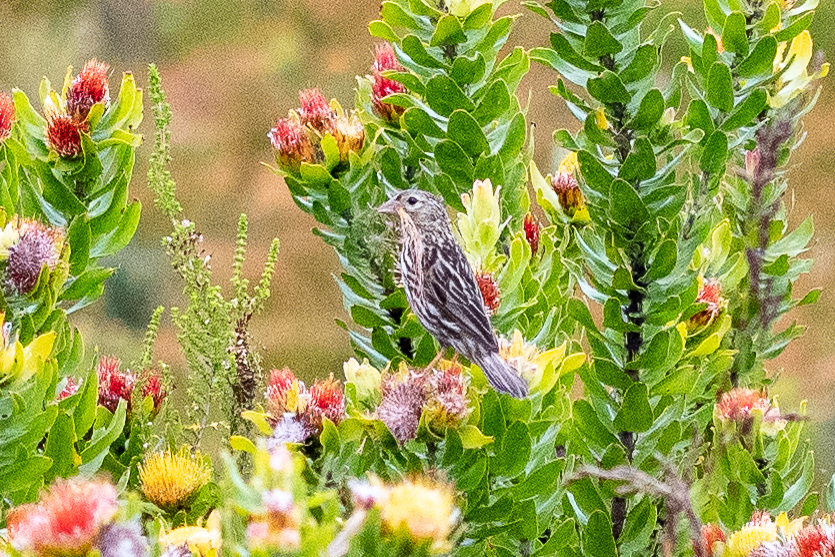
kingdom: Animalia
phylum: Chordata
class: Aves
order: Passeriformes
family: Ploceidae
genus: Euplectes
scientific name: Euplectes capensis
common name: Yellow bishop
